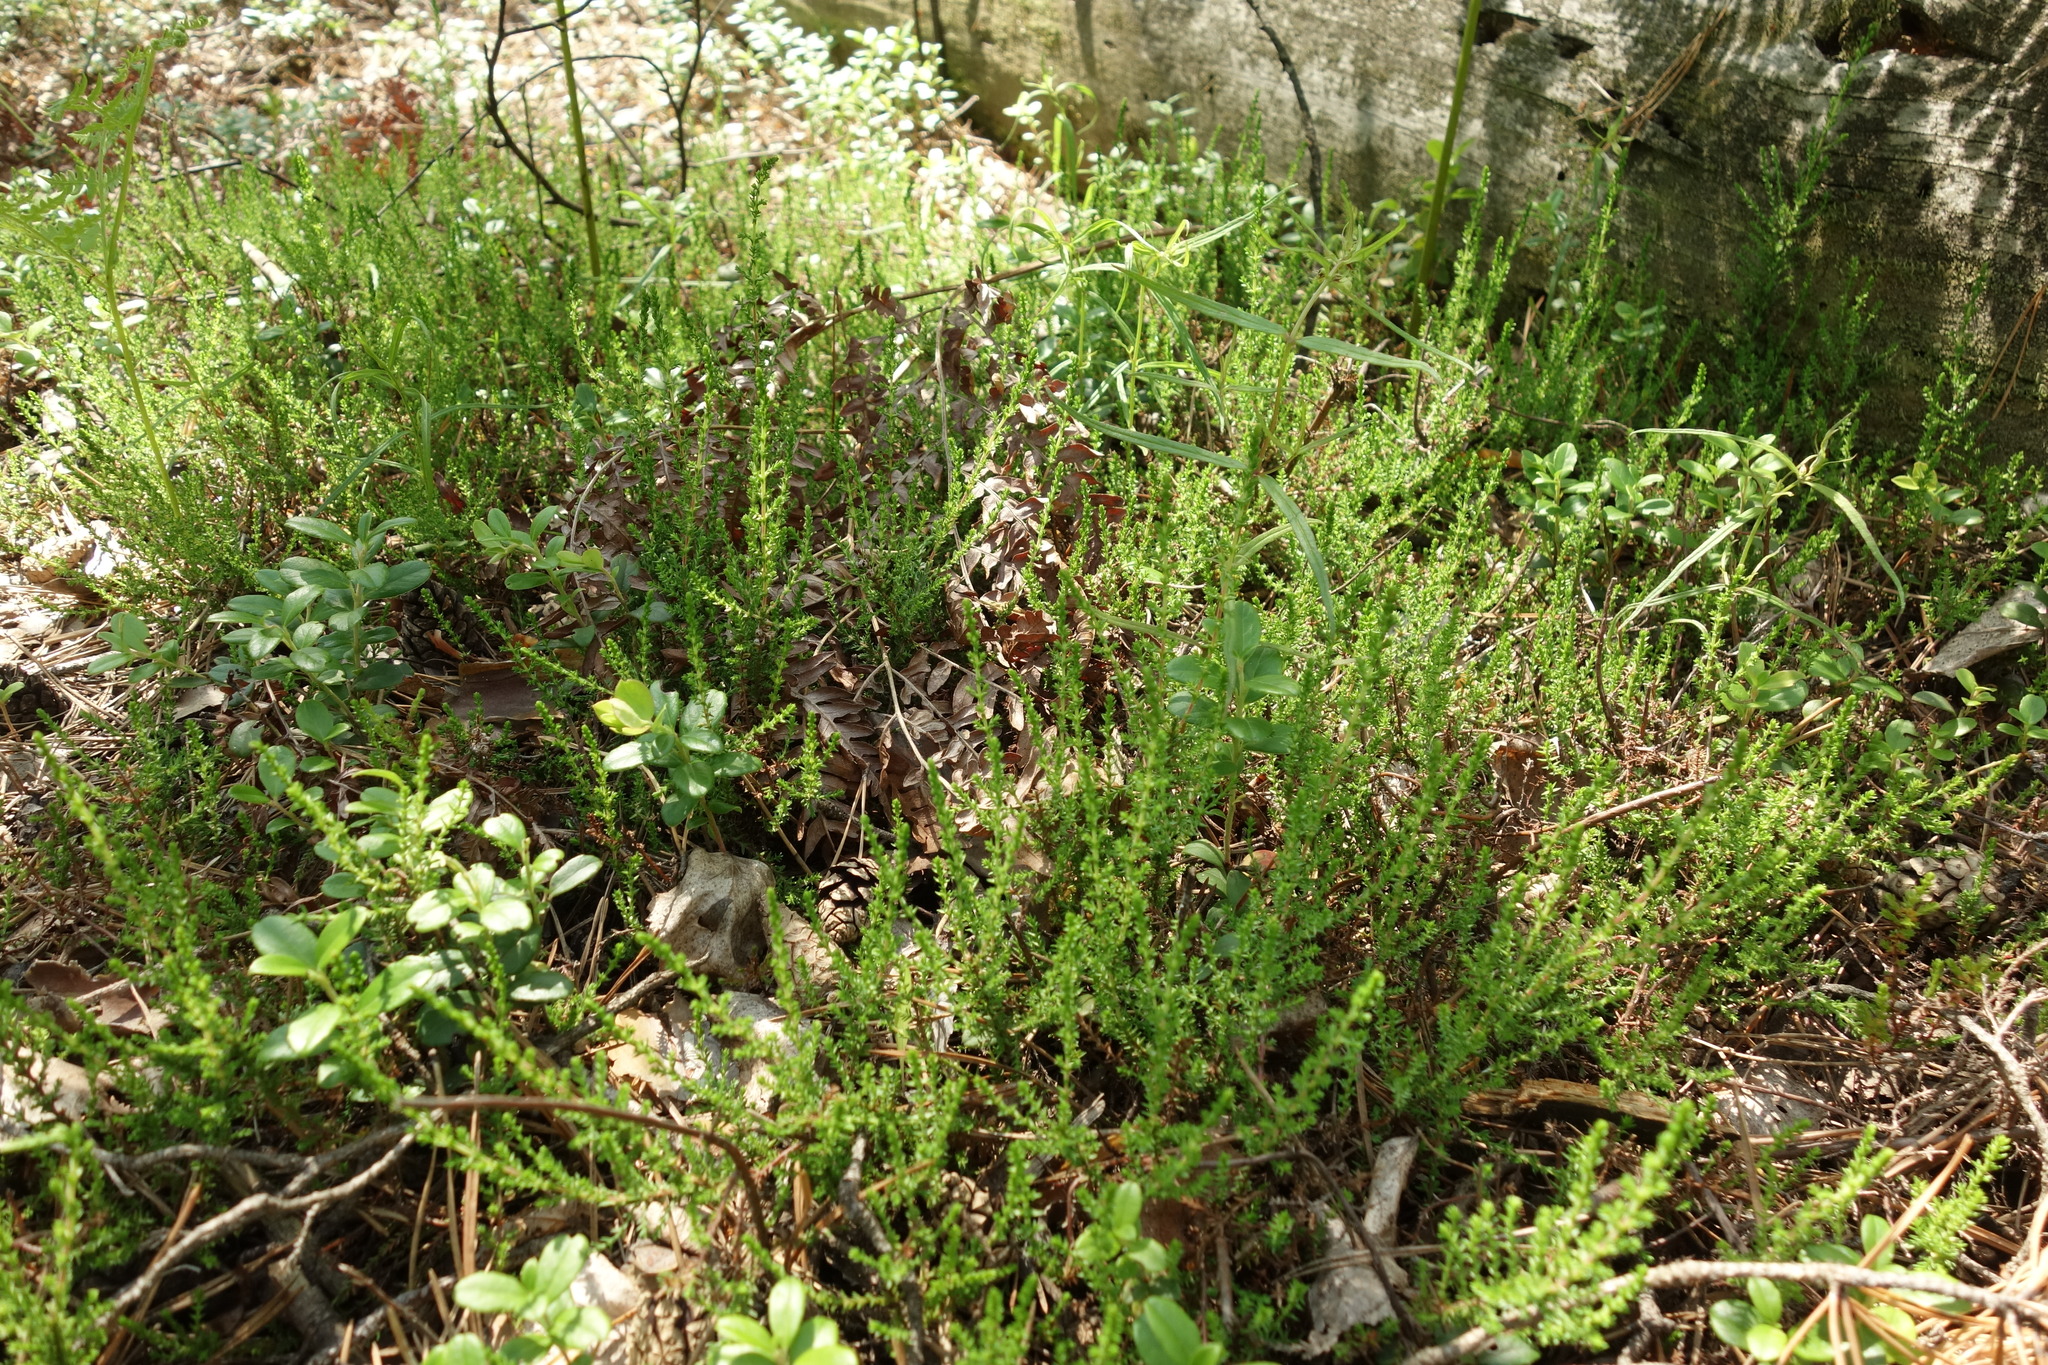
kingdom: Plantae
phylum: Tracheophyta
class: Magnoliopsida
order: Ericales
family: Ericaceae
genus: Calluna
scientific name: Calluna vulgaris
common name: Heather
